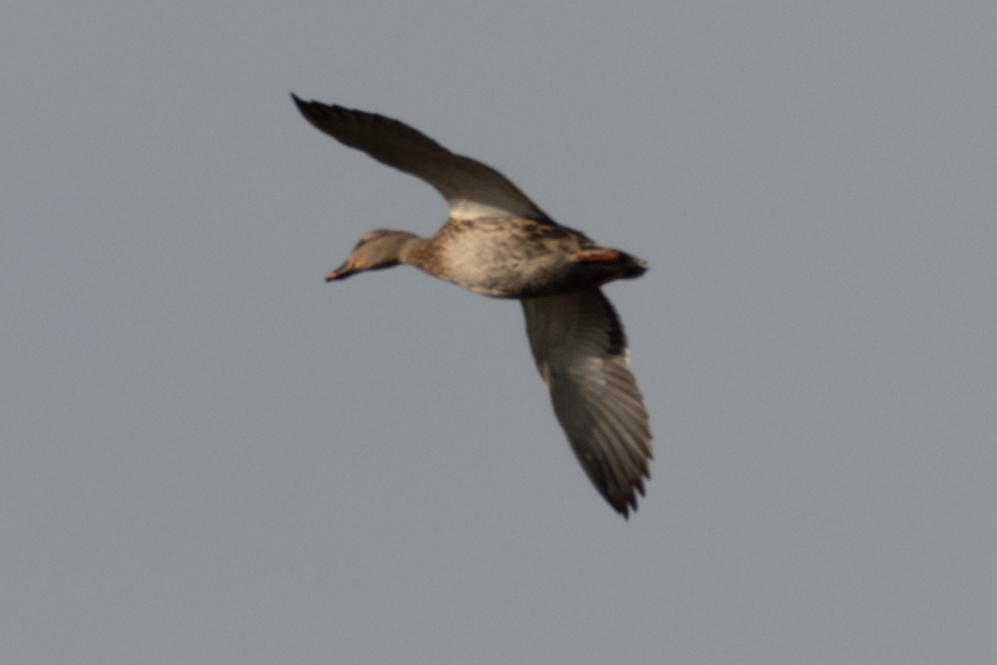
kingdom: Animalia
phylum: Chordata
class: Aves
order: Anseriformes
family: Anatidae
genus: Mareca
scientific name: Mareca strepera
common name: Gadwall
